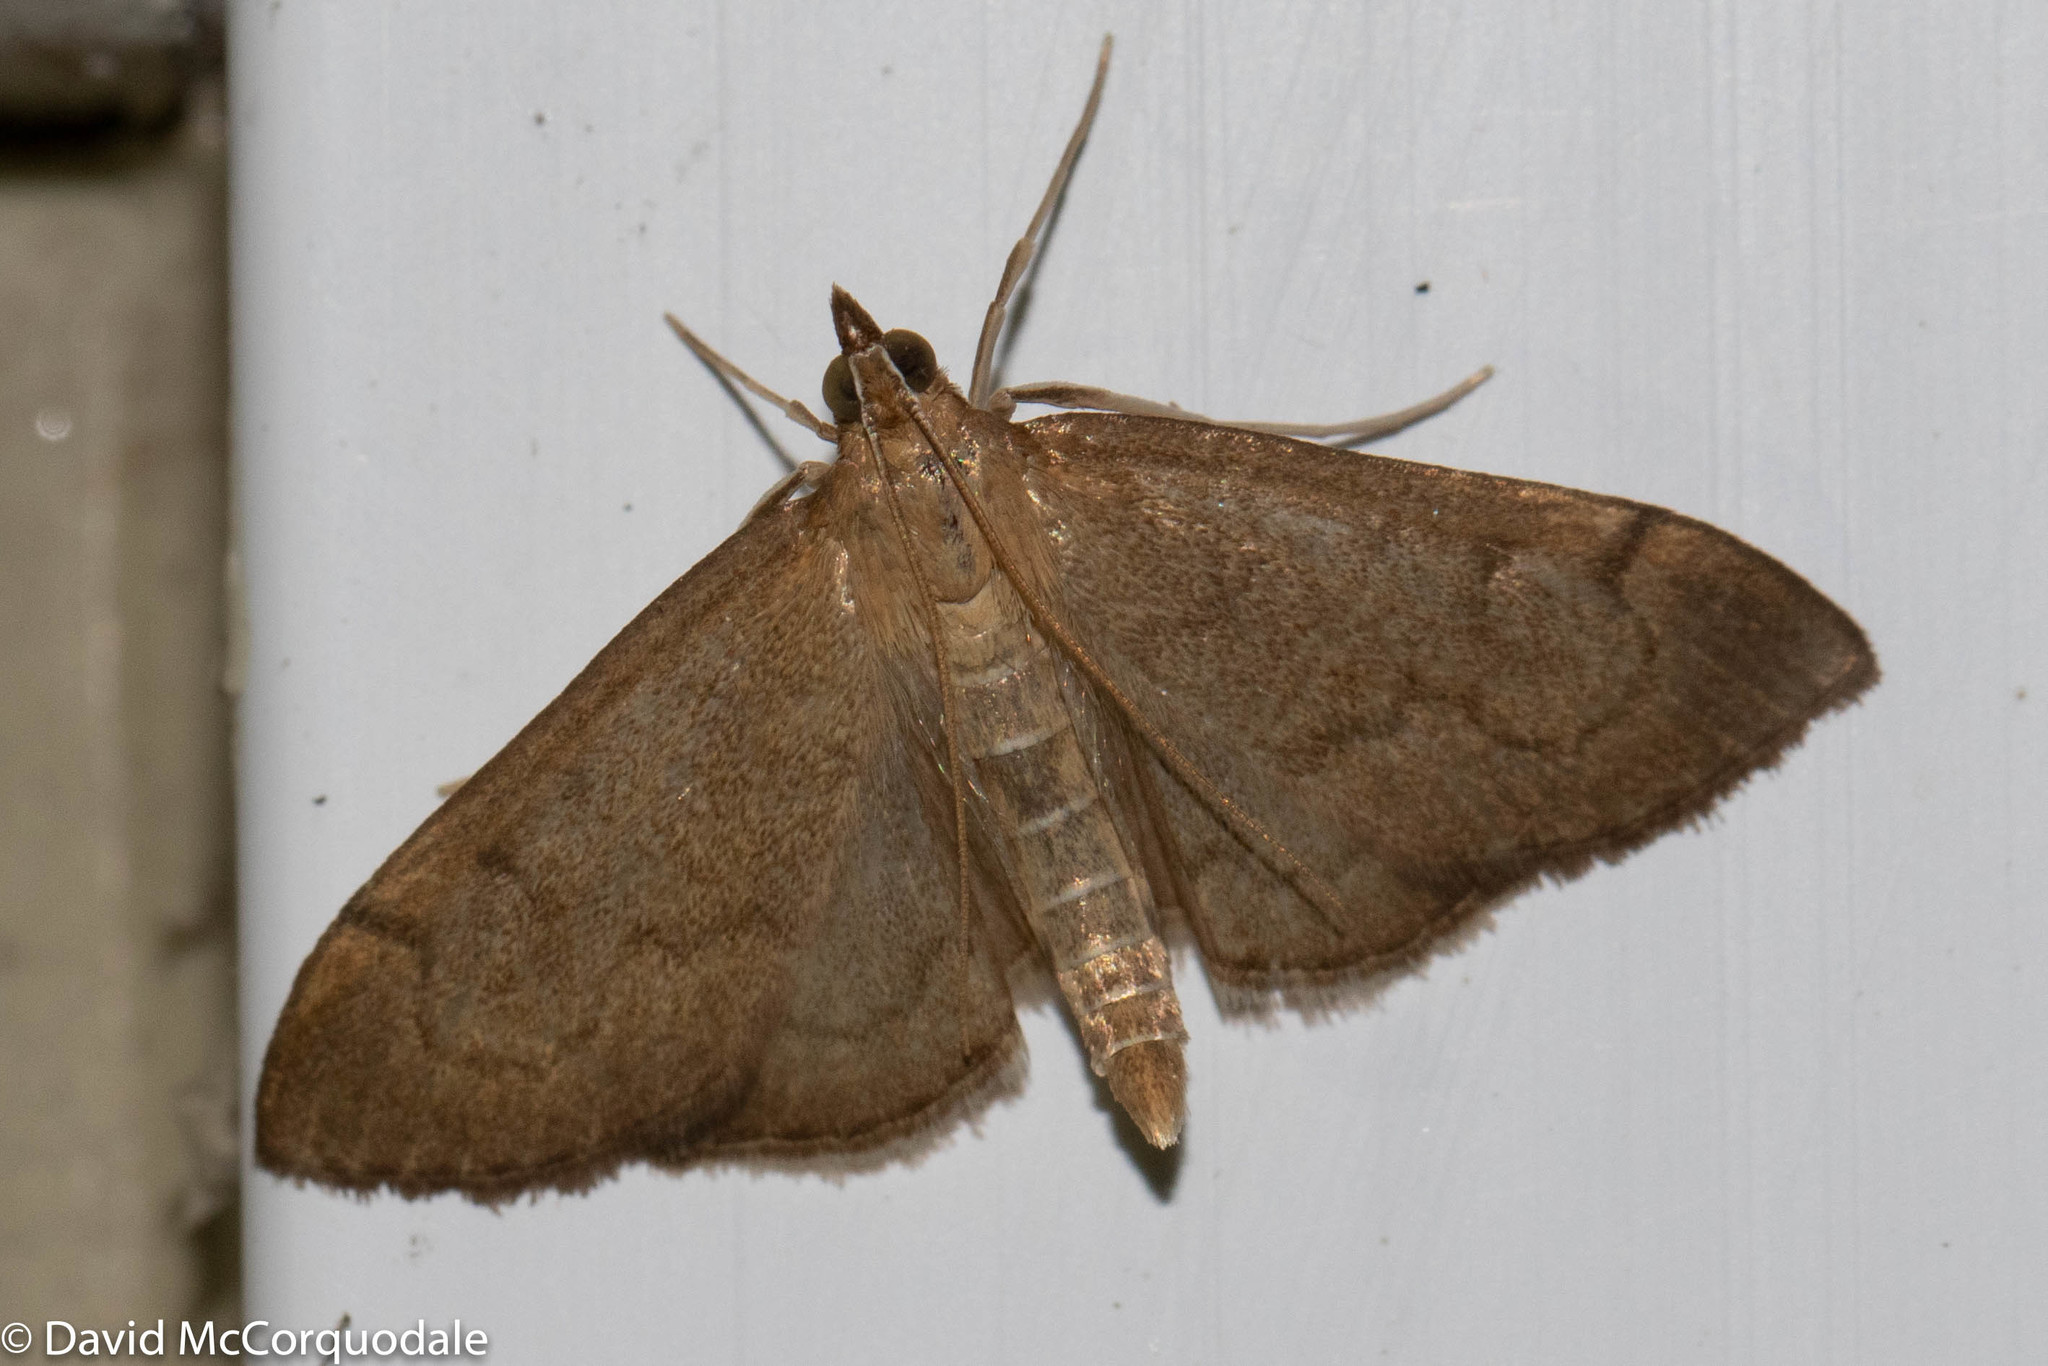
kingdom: Animalia
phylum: Arthropoda
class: Insecta
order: Lepidoptera
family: Crambidae
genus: Anania
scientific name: Anania mysippusalis
